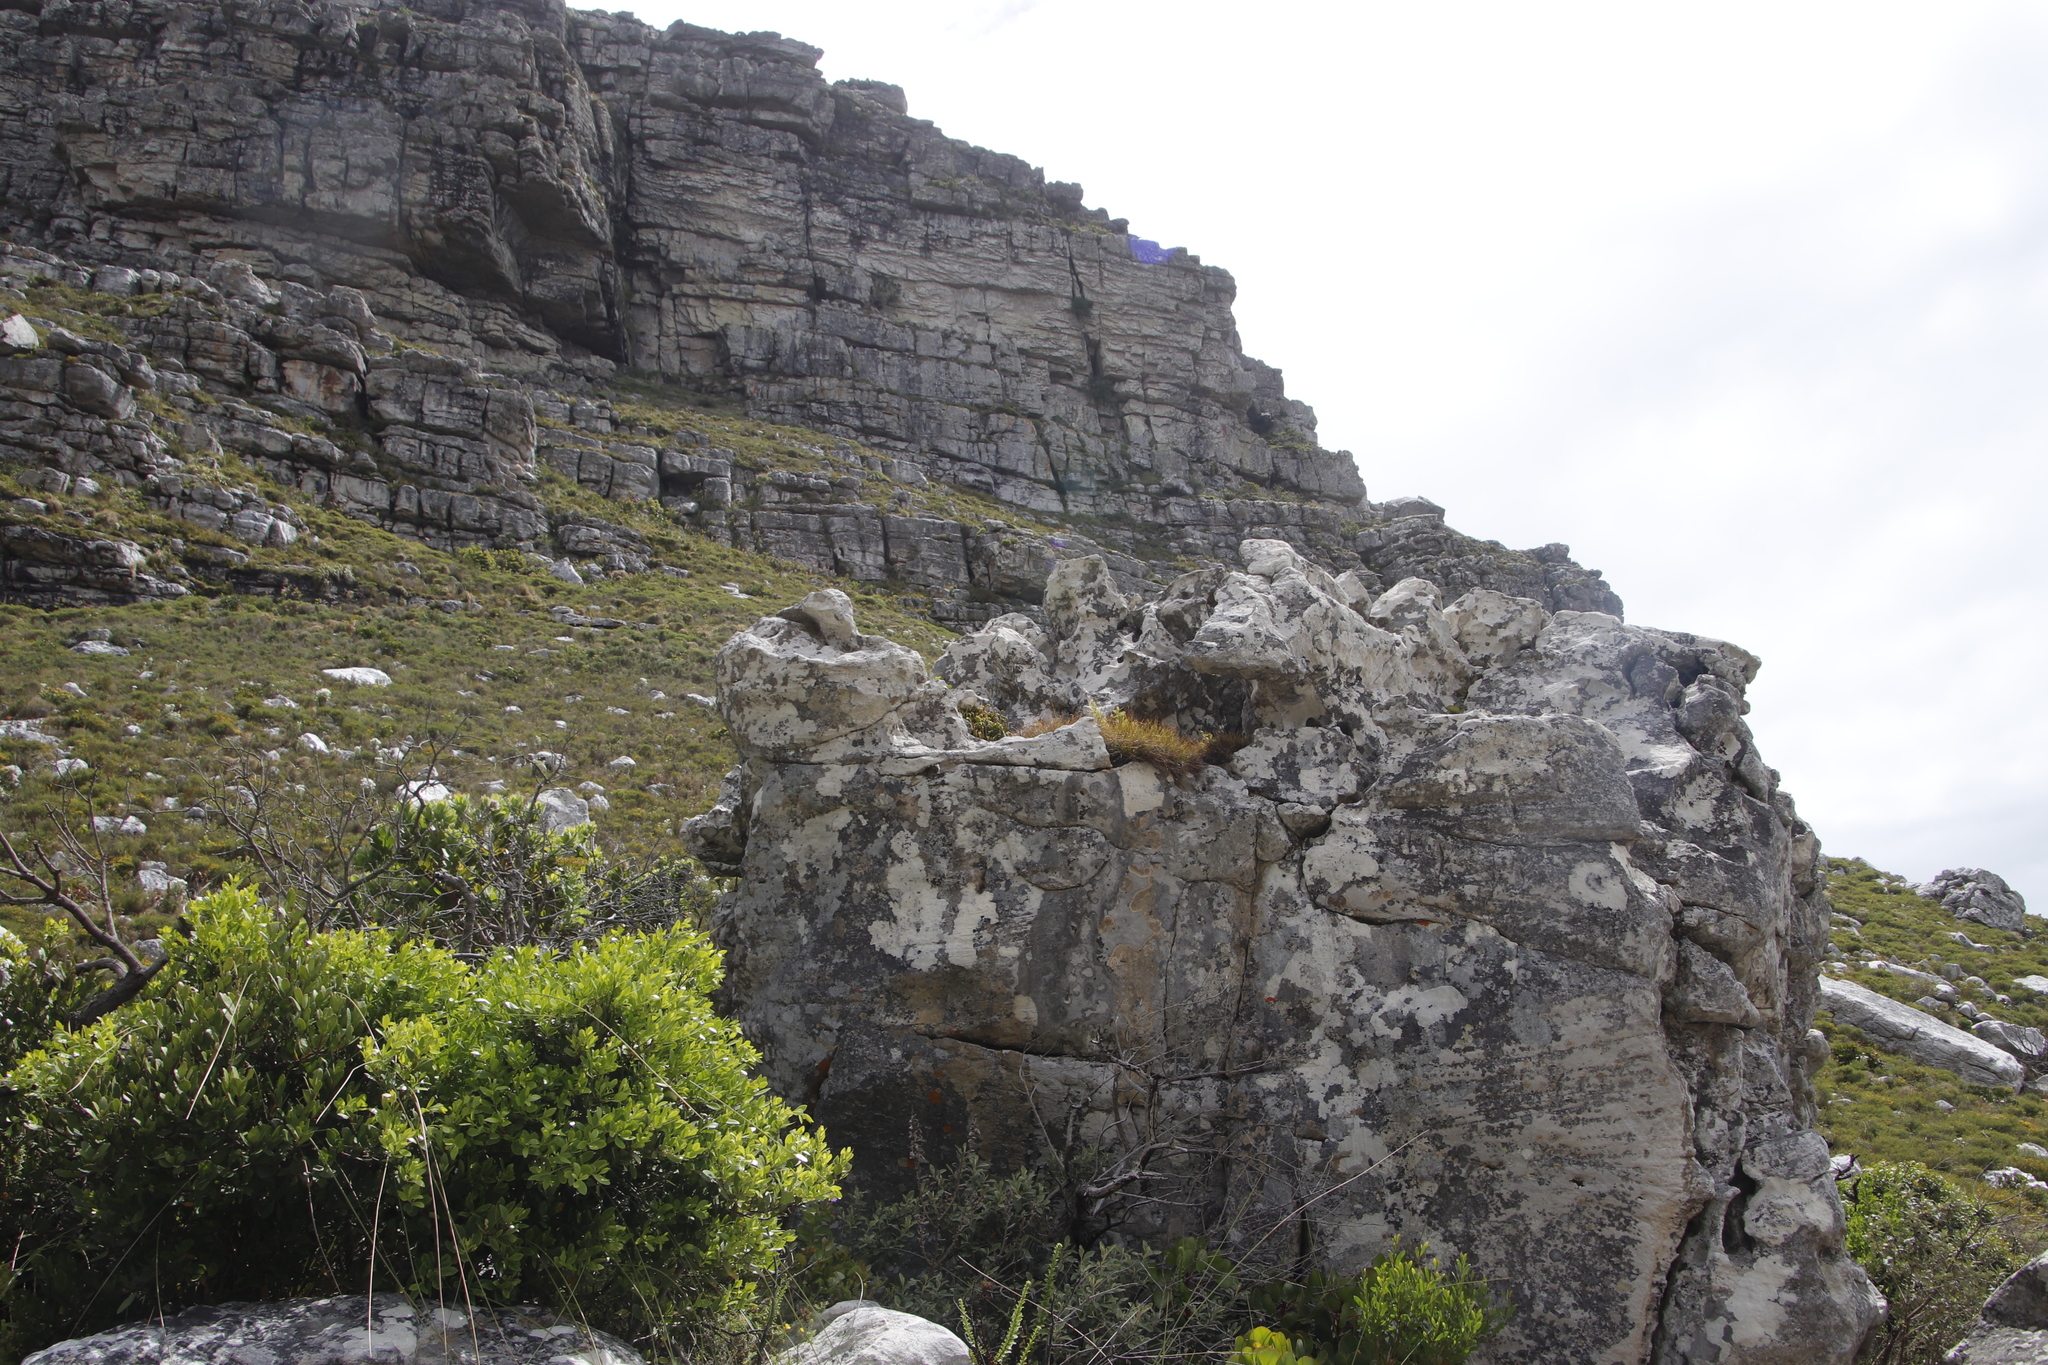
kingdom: Plantae
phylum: Tracheophyta
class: Lycopodiopsida
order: Lycopodiales
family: Lycopodiaceae
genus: Phlegmariurus
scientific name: Phlegmariurus gnidioides
